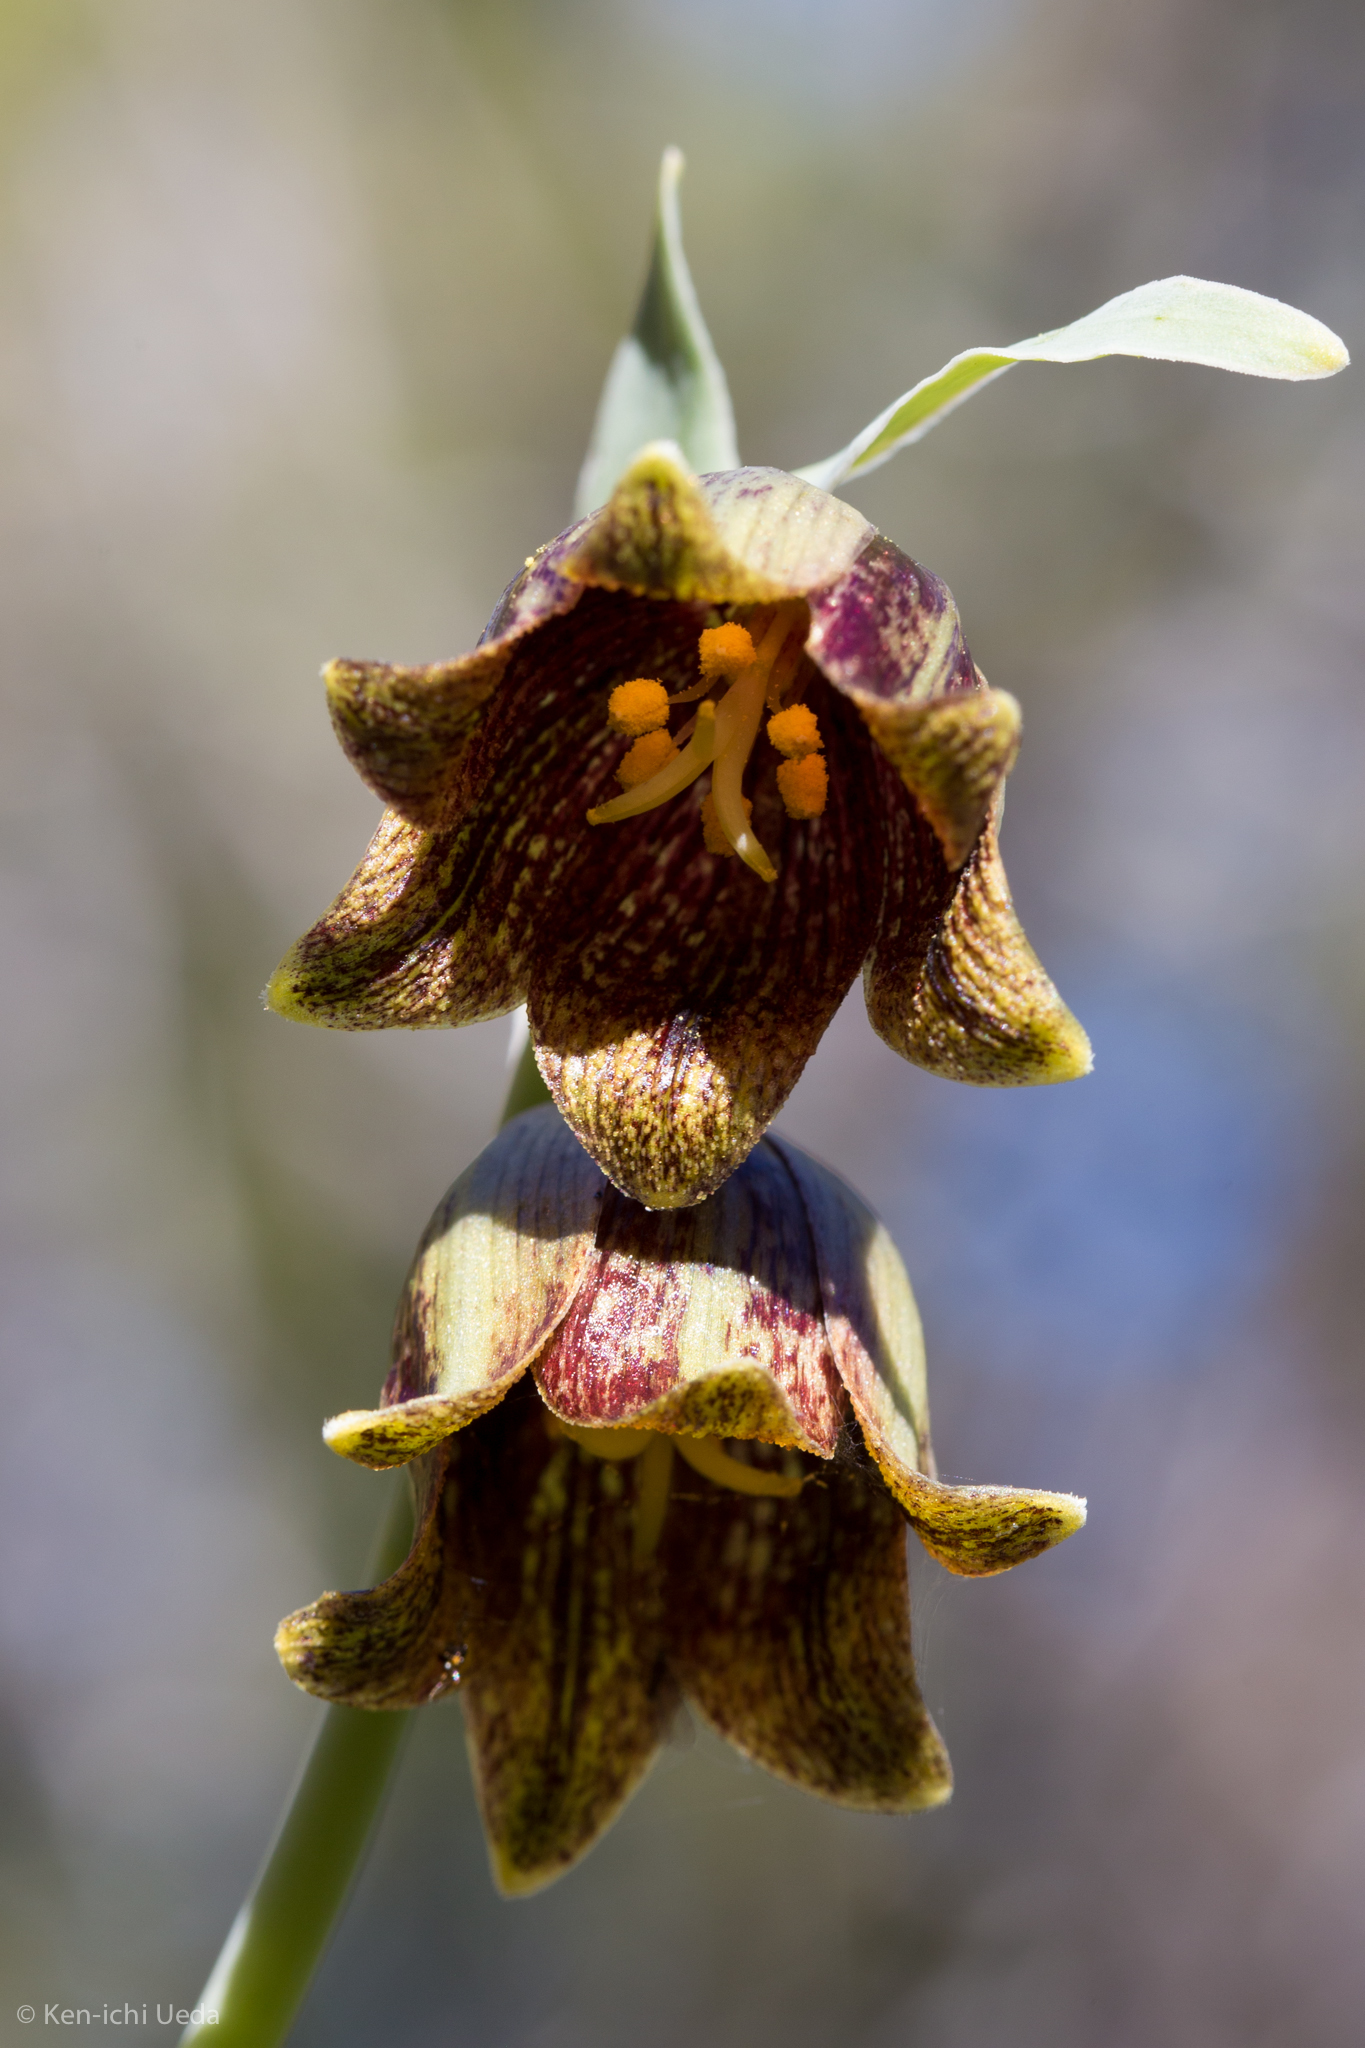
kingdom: Plantae
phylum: Tracheophyta
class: Liliopsida
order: Liliales
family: Liliaceae
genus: Fritillaria
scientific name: Fritillaria agrestis
